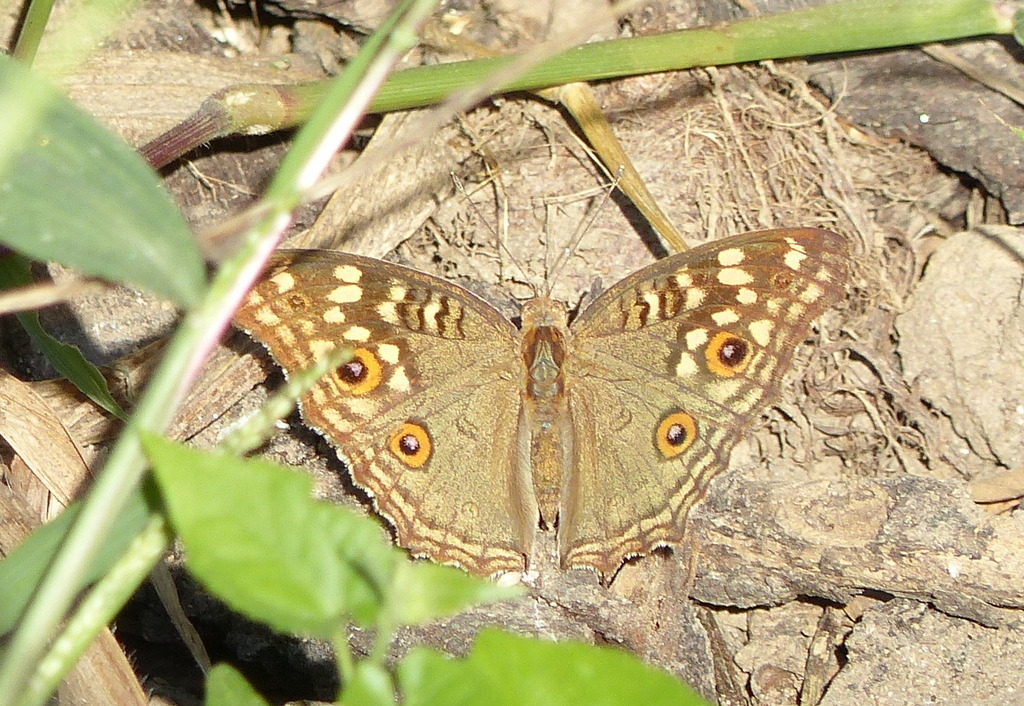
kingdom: Animalia
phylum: Arthropoda
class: Insecta
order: Lepidoptera
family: Nymphalidae
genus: Junonia
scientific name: Junonia lemonias
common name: Lemon pansy
